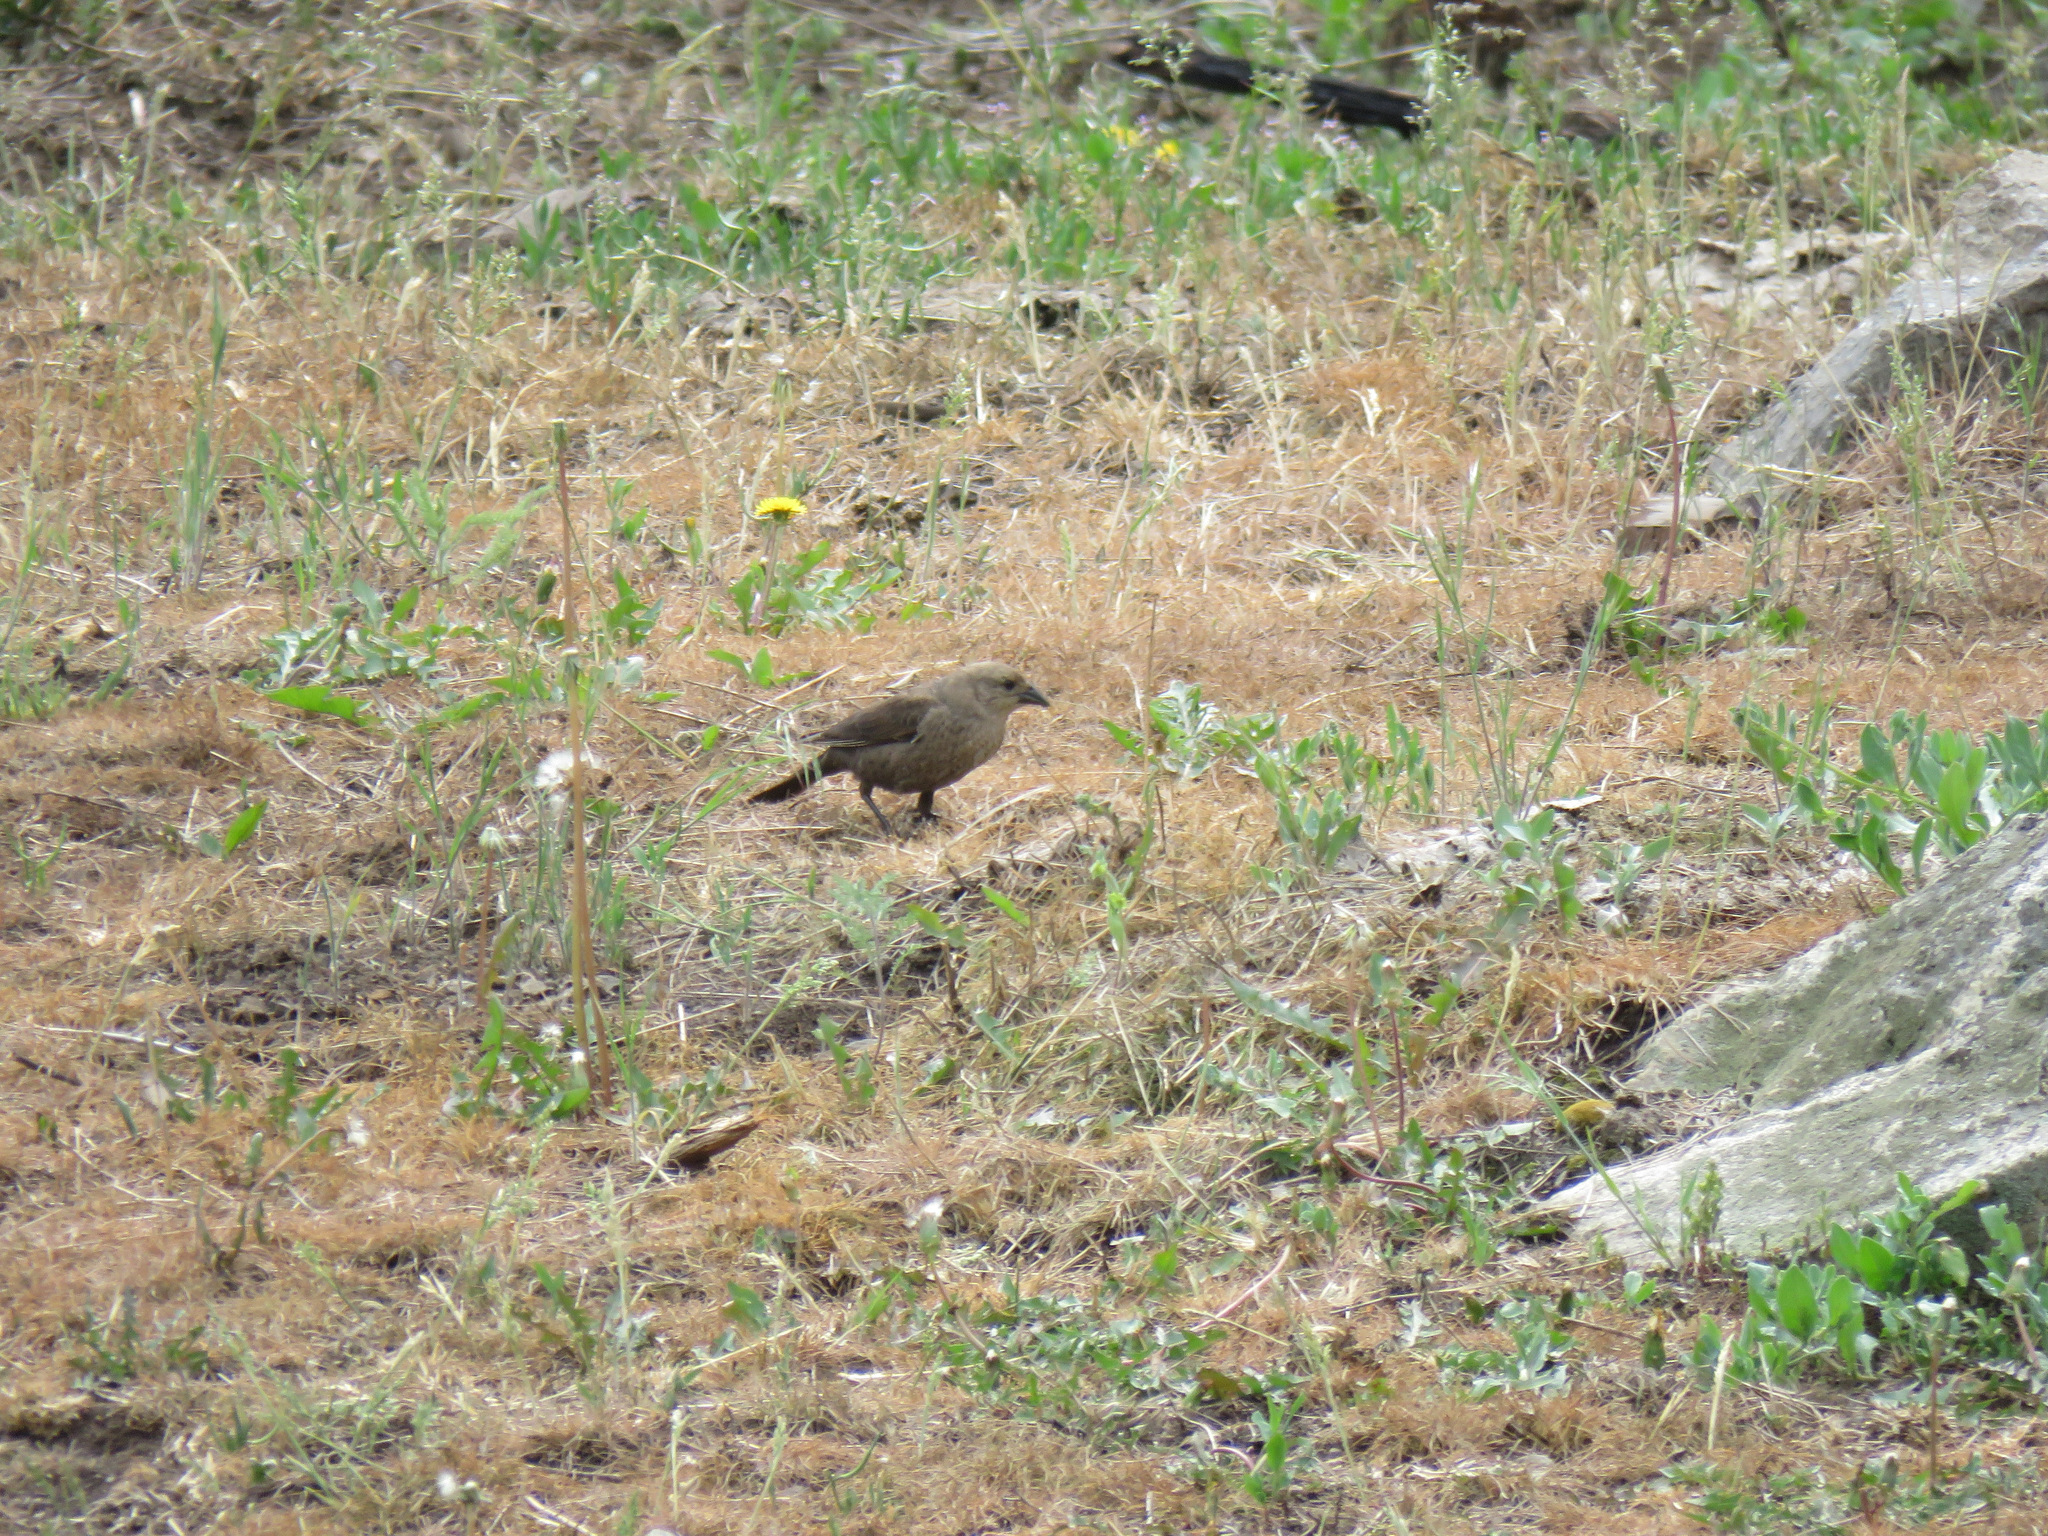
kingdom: Animalia
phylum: Chordata
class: Aves
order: Passeriformes
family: Icteridae
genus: Molothrus
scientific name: Molothrus ater
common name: Brown-headed cowbird
